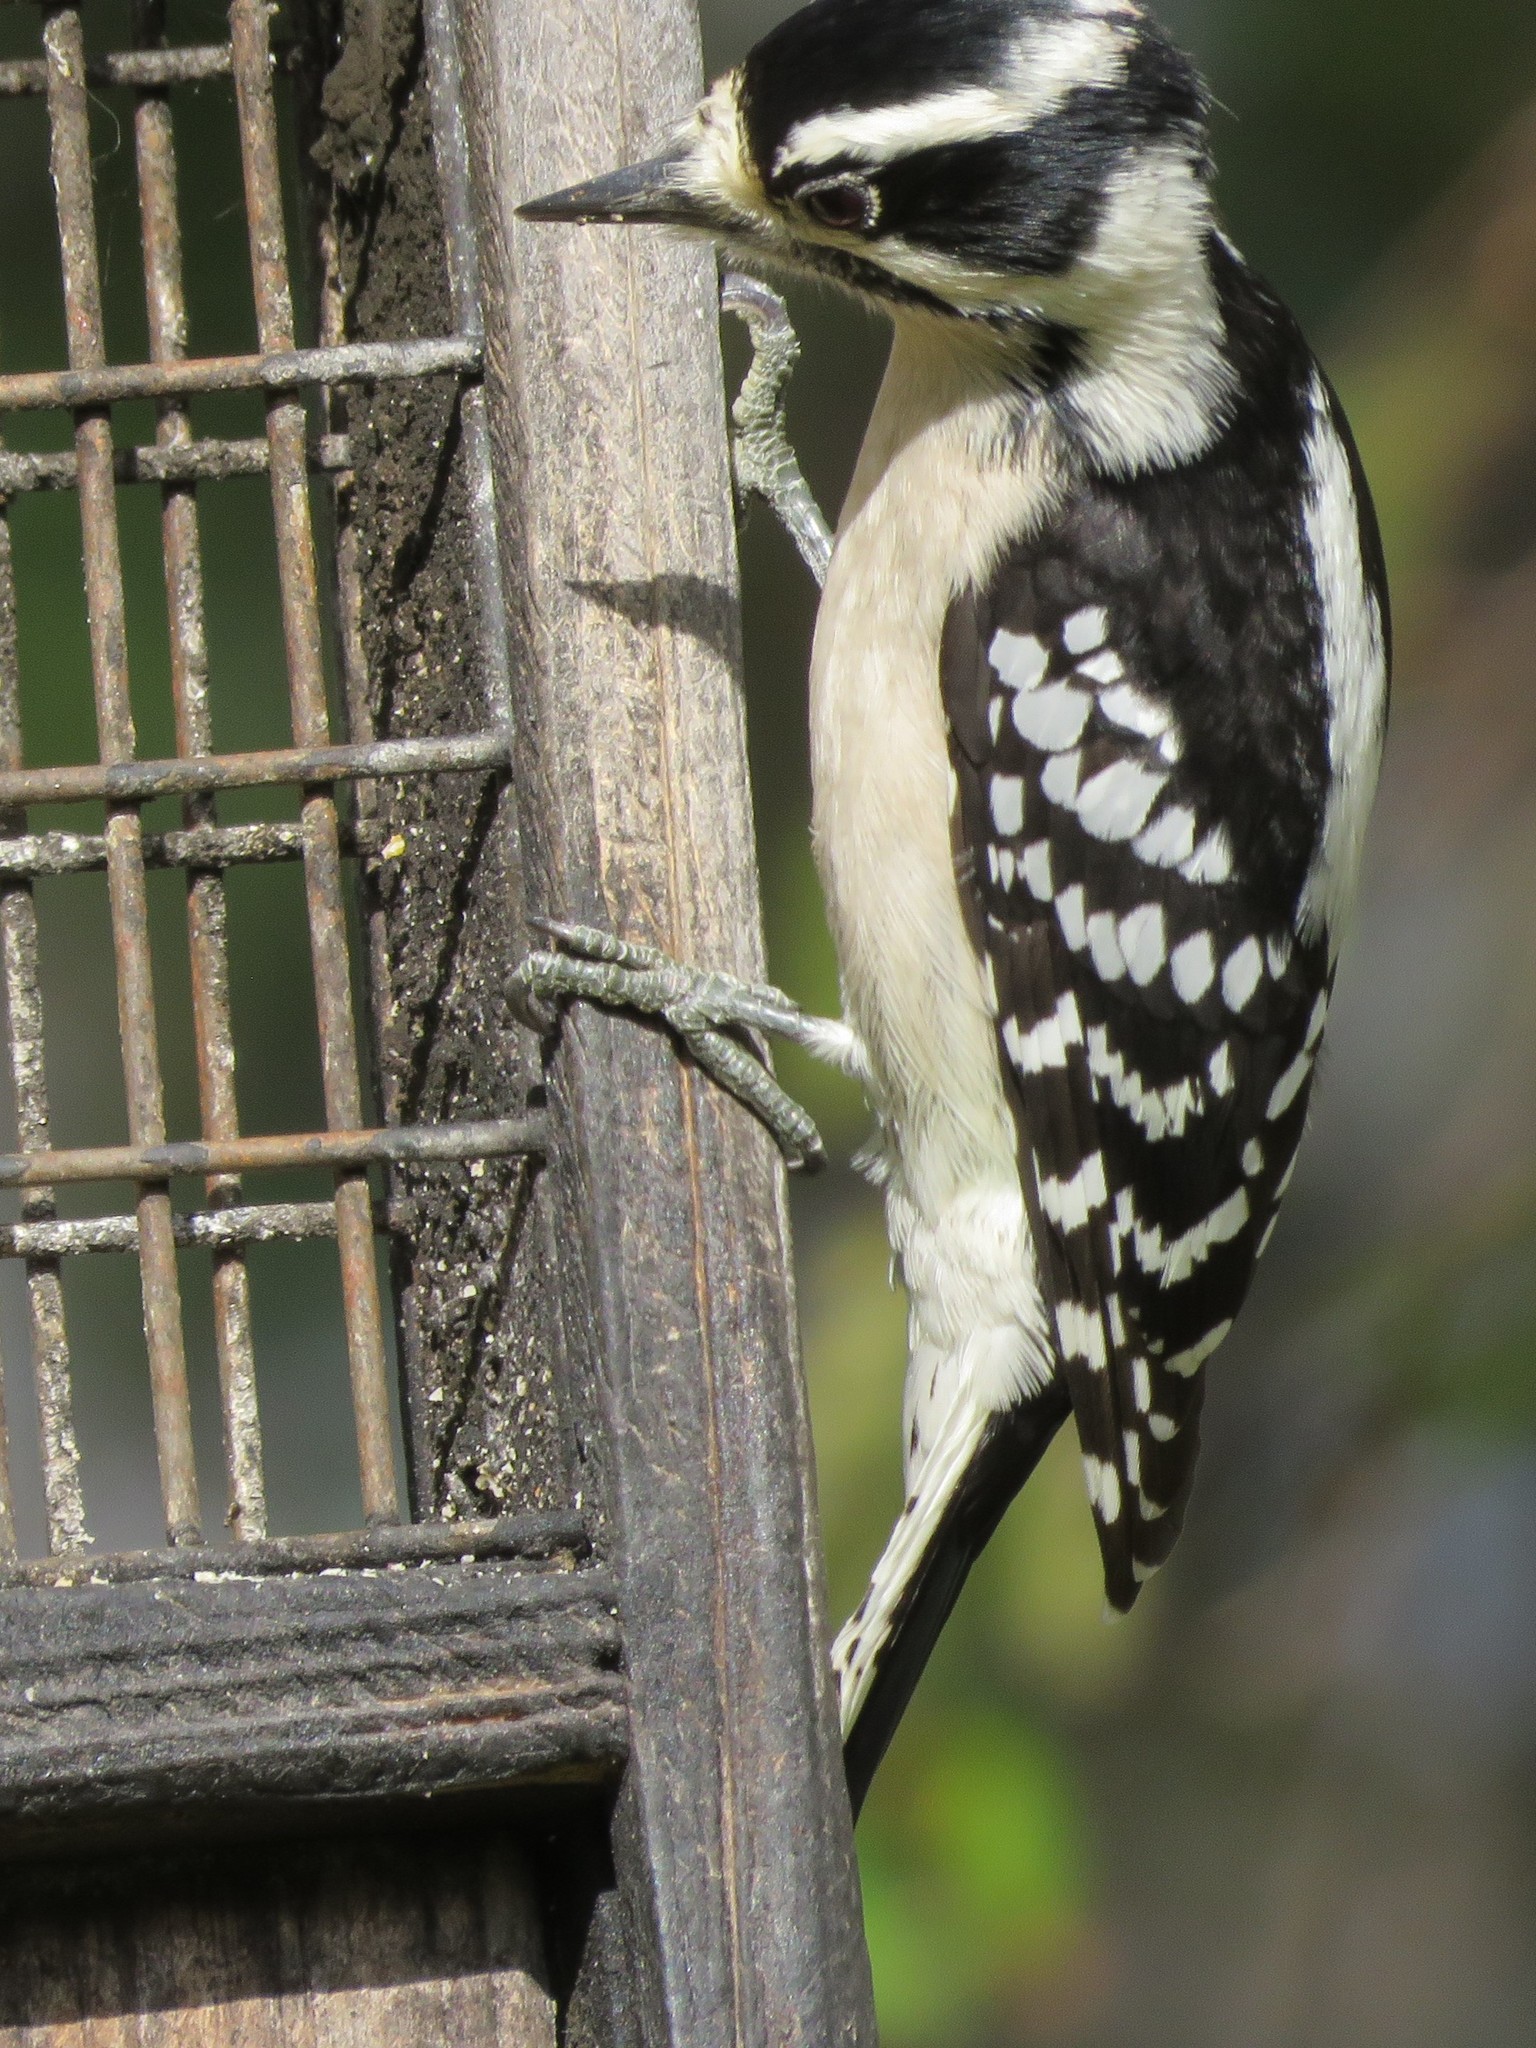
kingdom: Animalia
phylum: Chordata
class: Aves
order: Piciformes
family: Picidae
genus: Dryobates
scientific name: Dryobates pubescens
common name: Downy woodpecker
